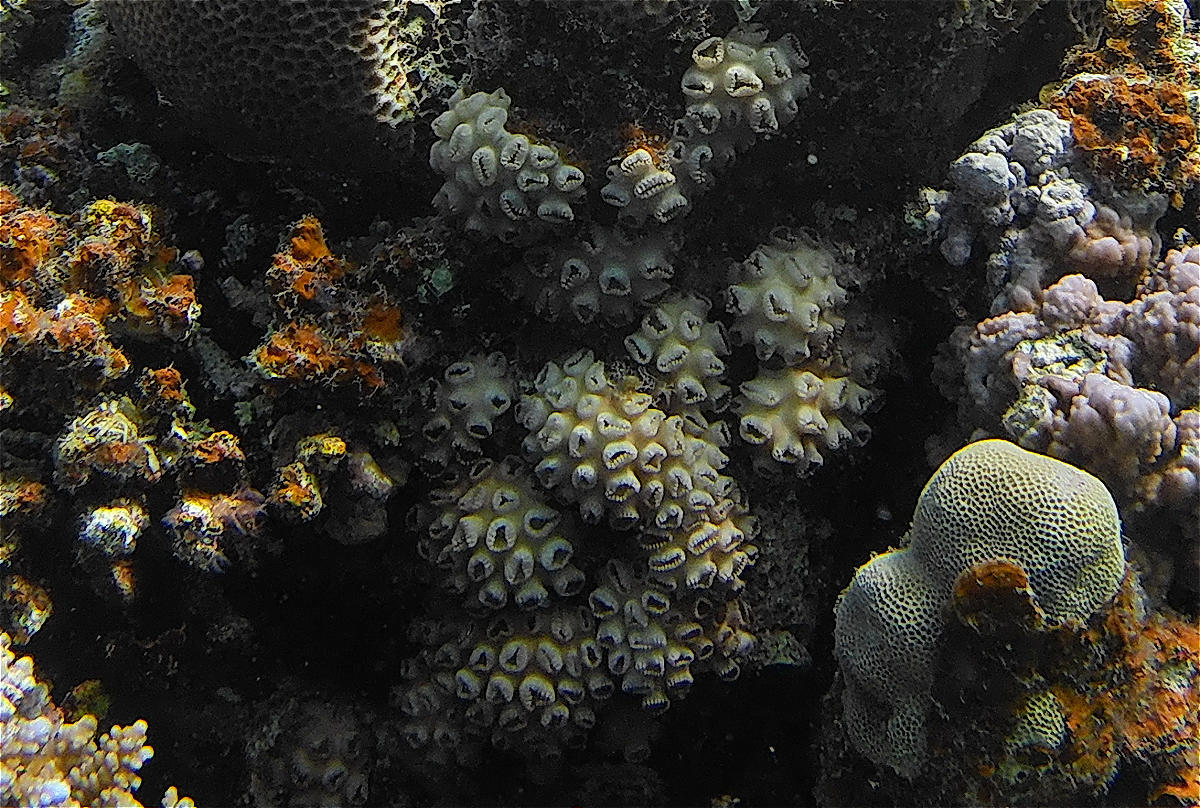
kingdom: Animalia
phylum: Cnidaria
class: Anthozoa
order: Zoantharia
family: Sphenopidae
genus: Palythoa
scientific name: Palythoa tuberculosa
